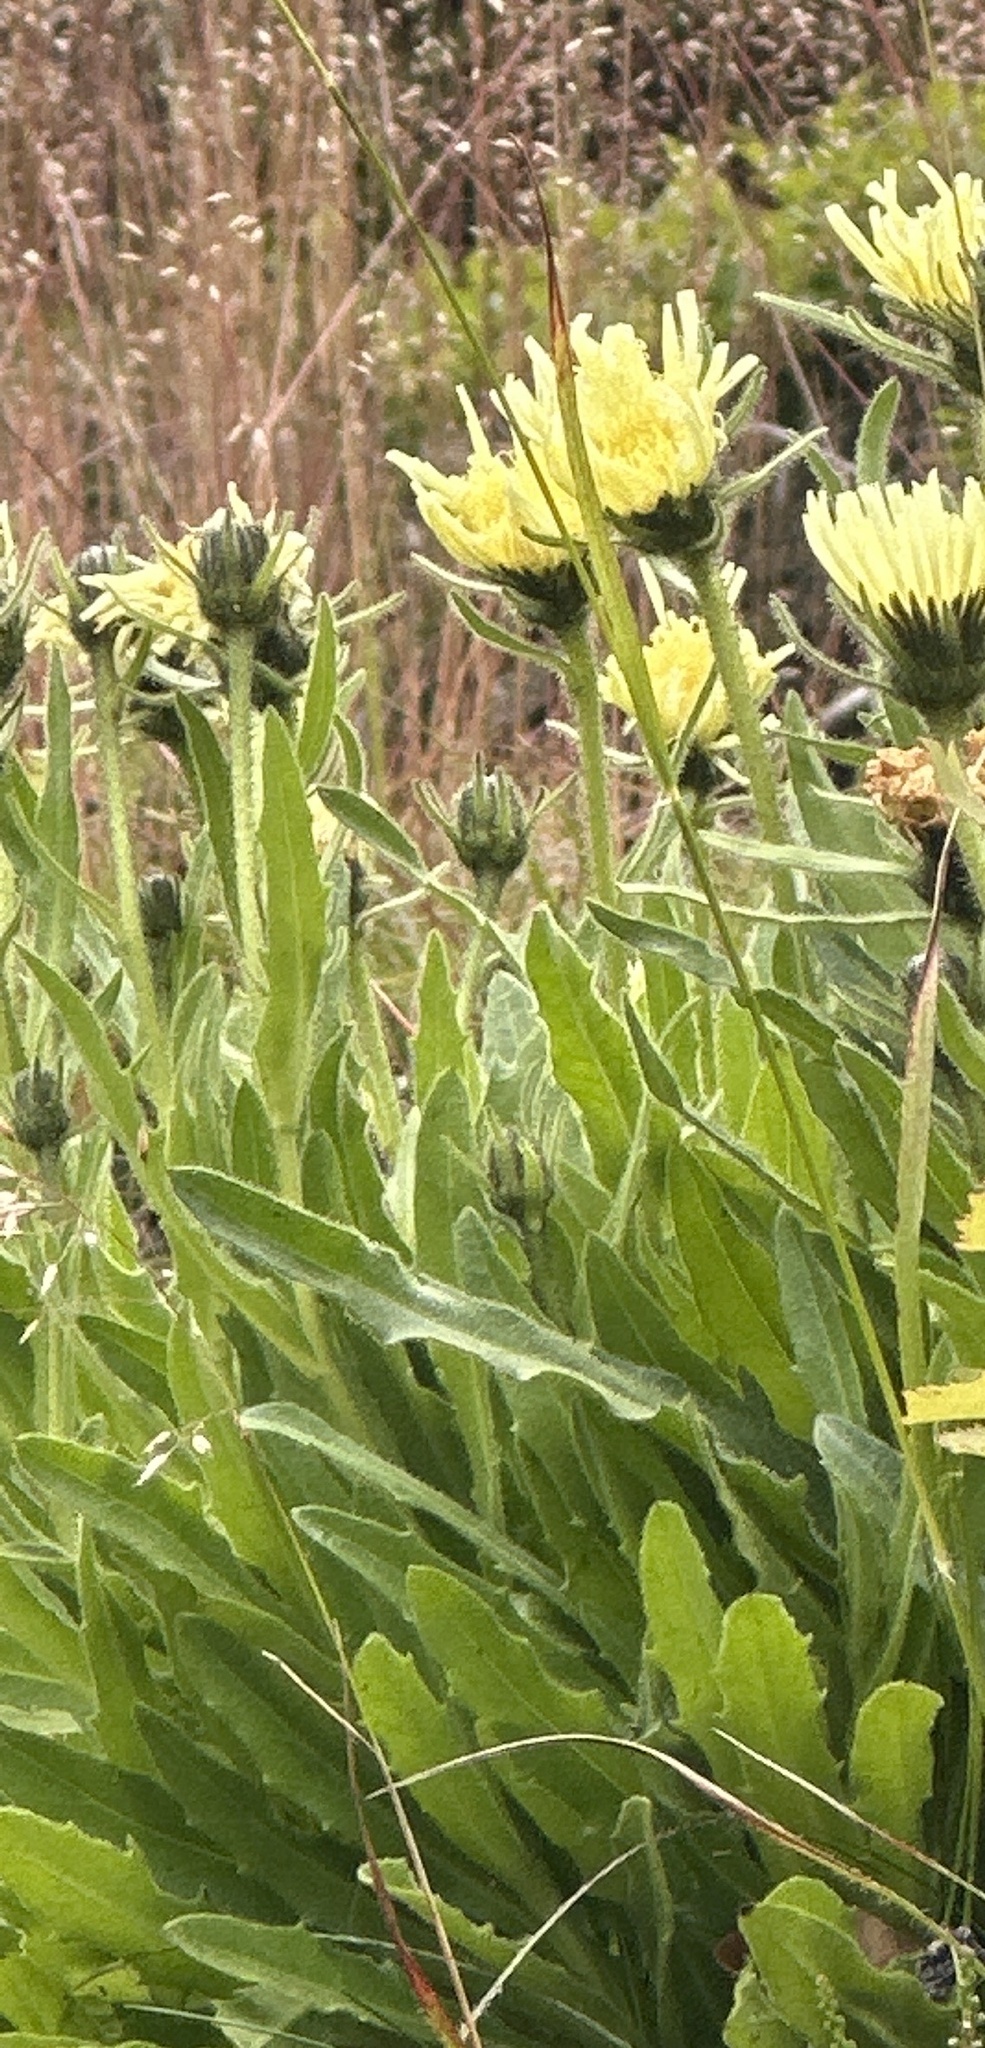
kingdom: Plantae
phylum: Tracheophyta
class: Magnoliopsida
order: Asterales
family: Asteraceae
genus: Schlagintweitia
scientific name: Schlagintweitia intybacea
